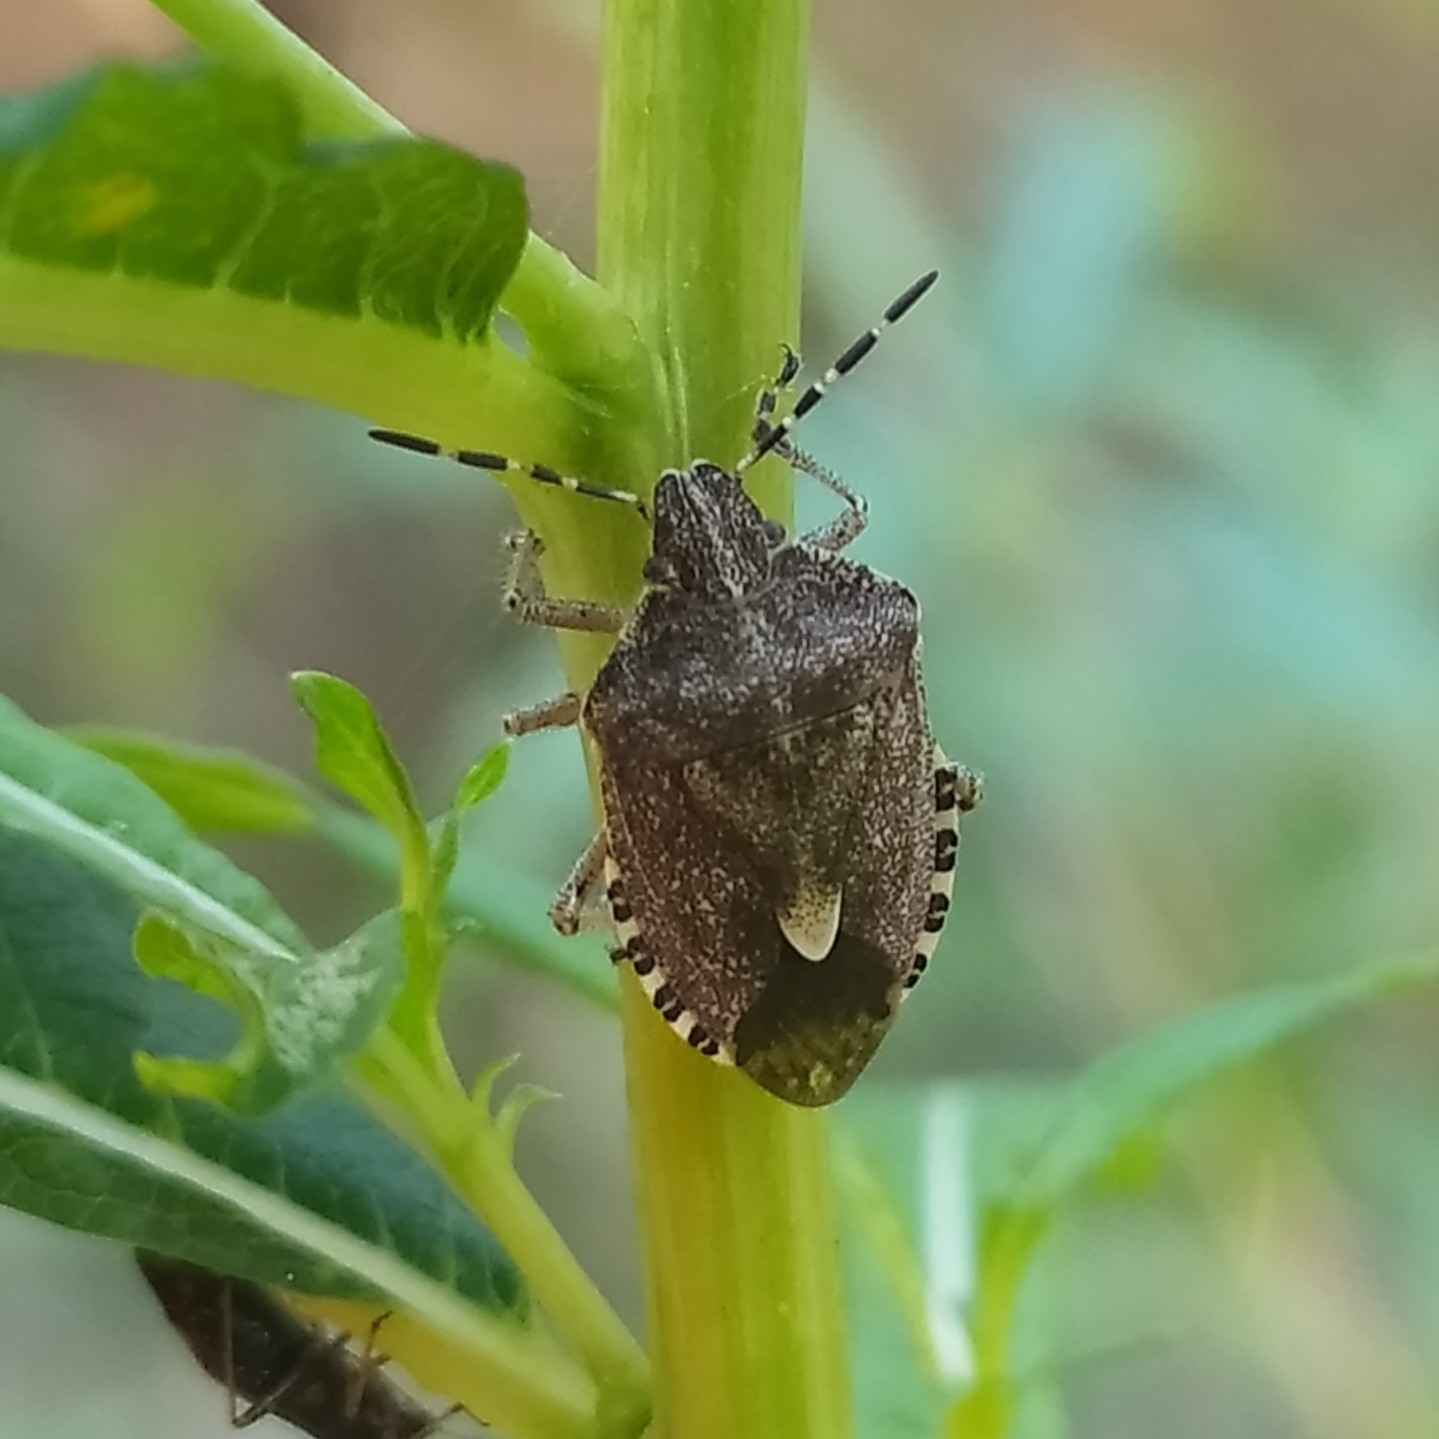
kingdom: Animalia
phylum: Arthropoda
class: Insecta
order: Hemiptera
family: Pentatomidae
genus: Dolycoris
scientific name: Dolycoris baccarum
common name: Sloe bug
